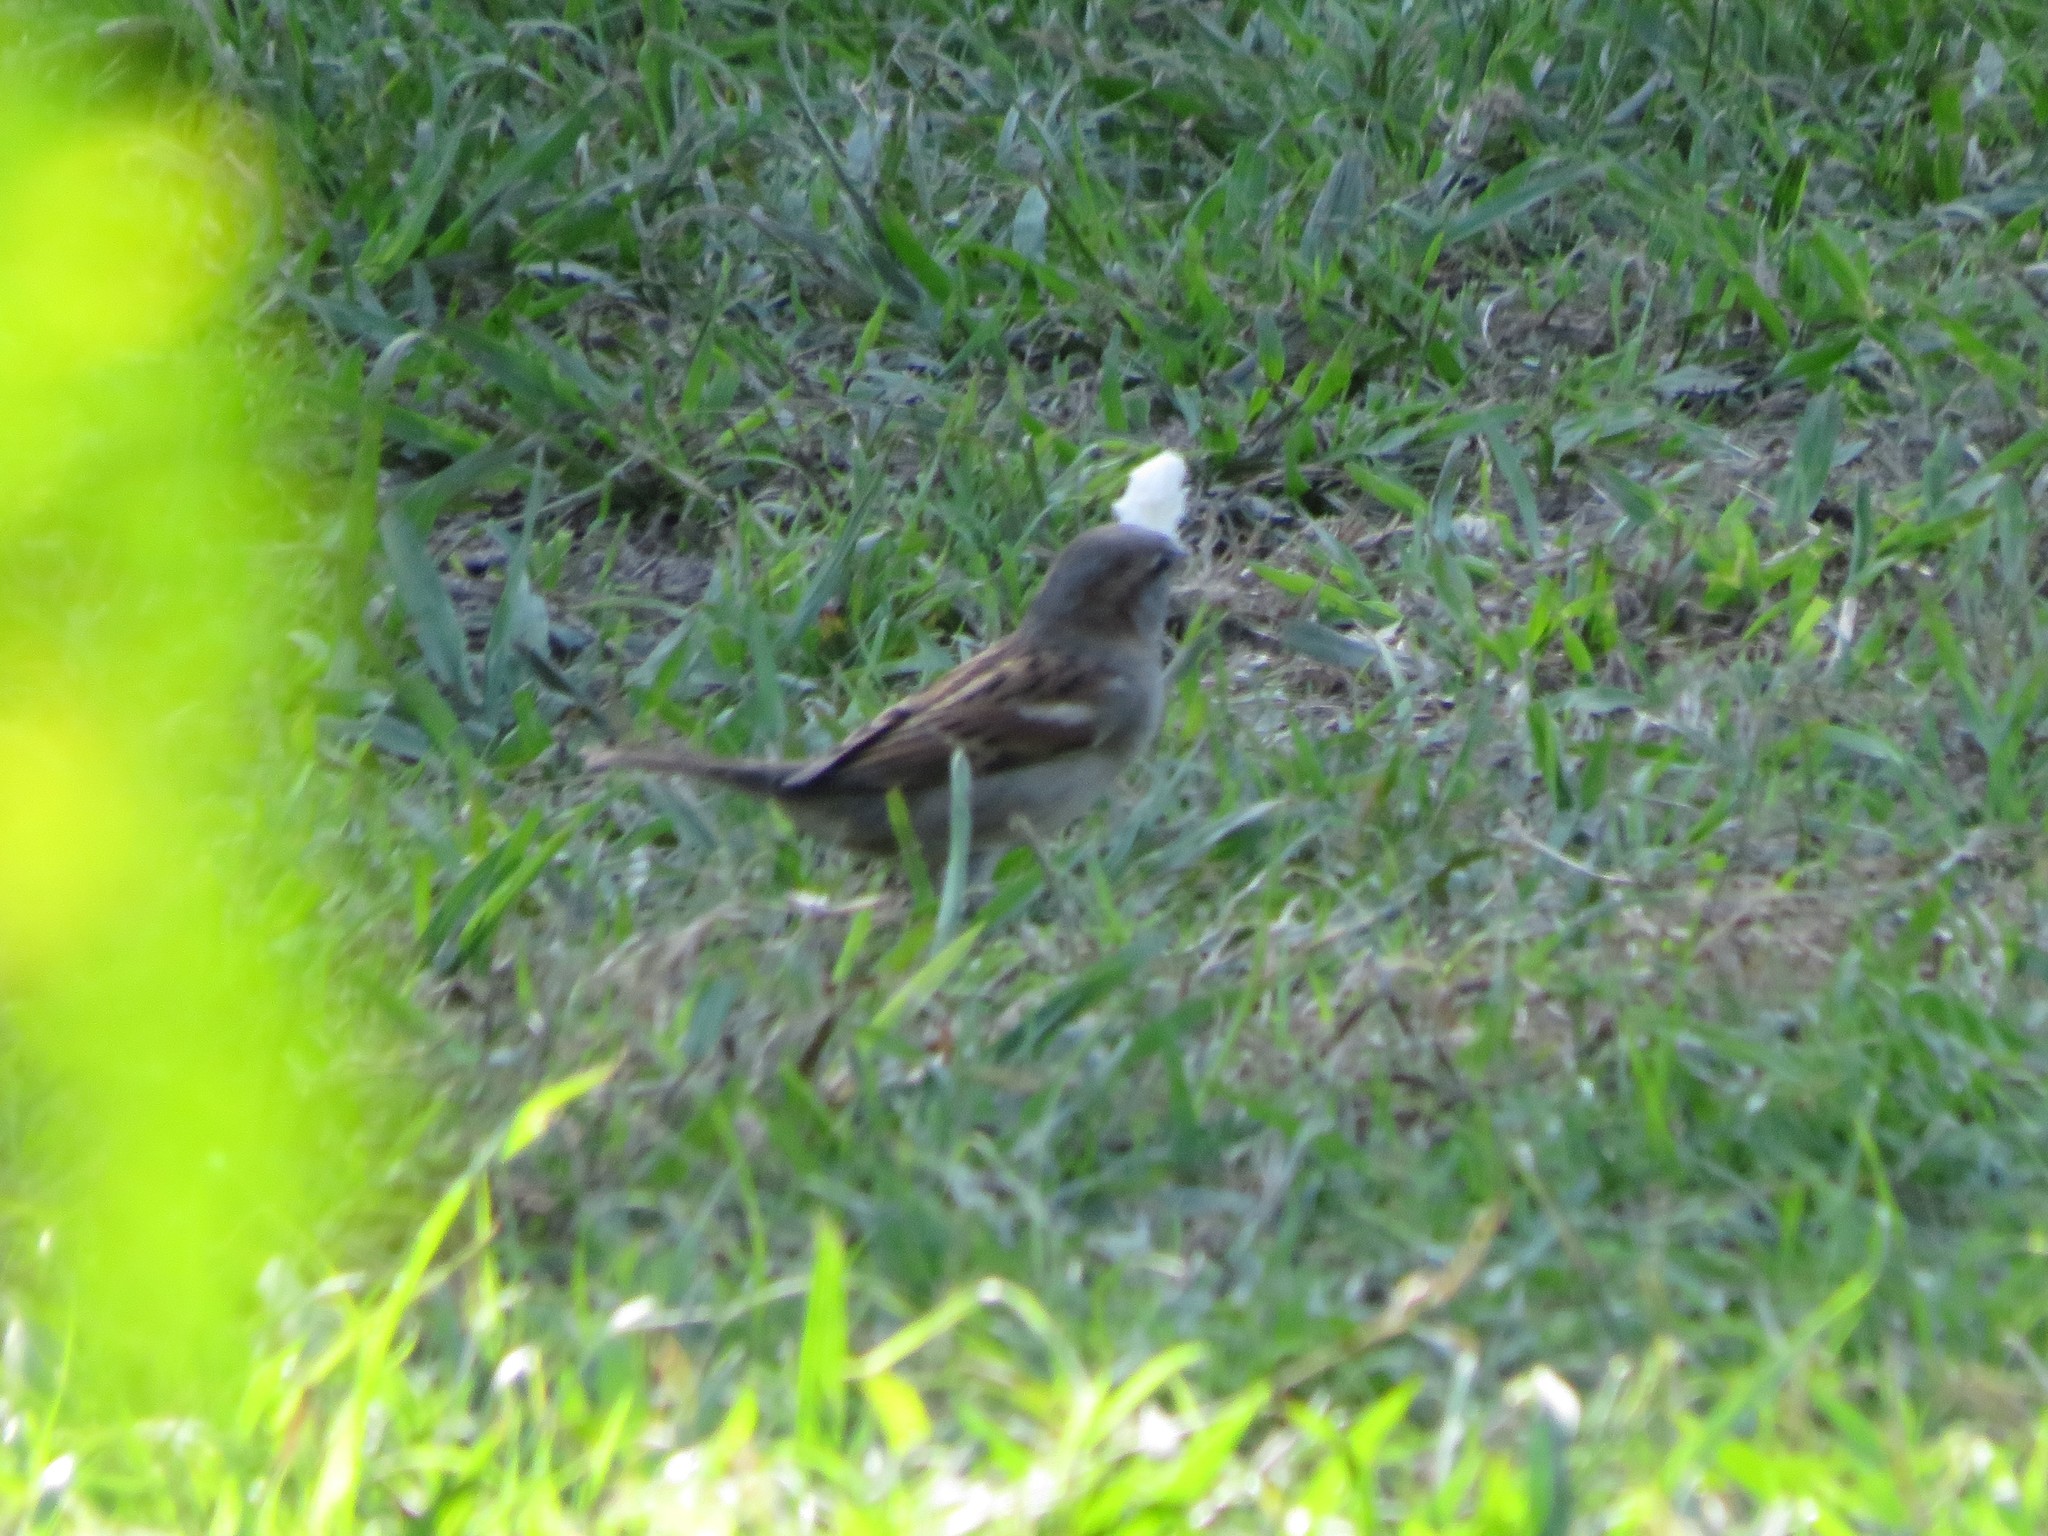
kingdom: Animalia
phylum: Chordata
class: Aves
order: Passeriformes
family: Passeridae
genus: Passer
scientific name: Passer domesticus
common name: House sparrow
